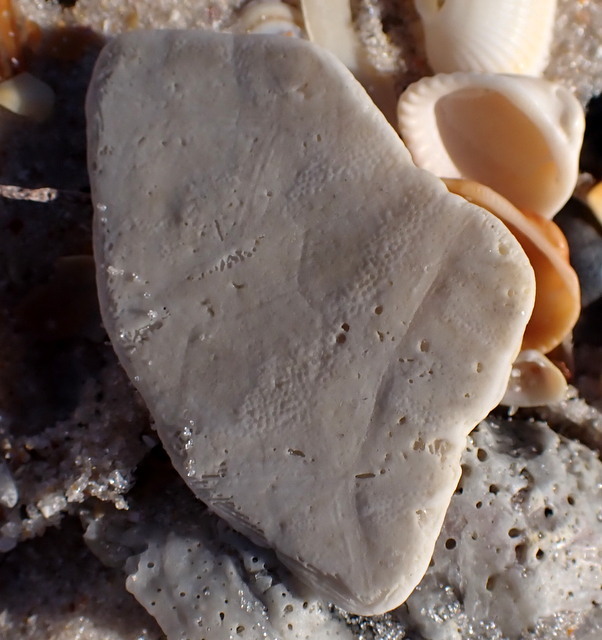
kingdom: Animalia
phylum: Echinodermata
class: Echinoidea
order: Echinolampadacea
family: Mellitidae
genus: Mellita
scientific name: Mellita quinquiesperforata
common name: Sand dollar
